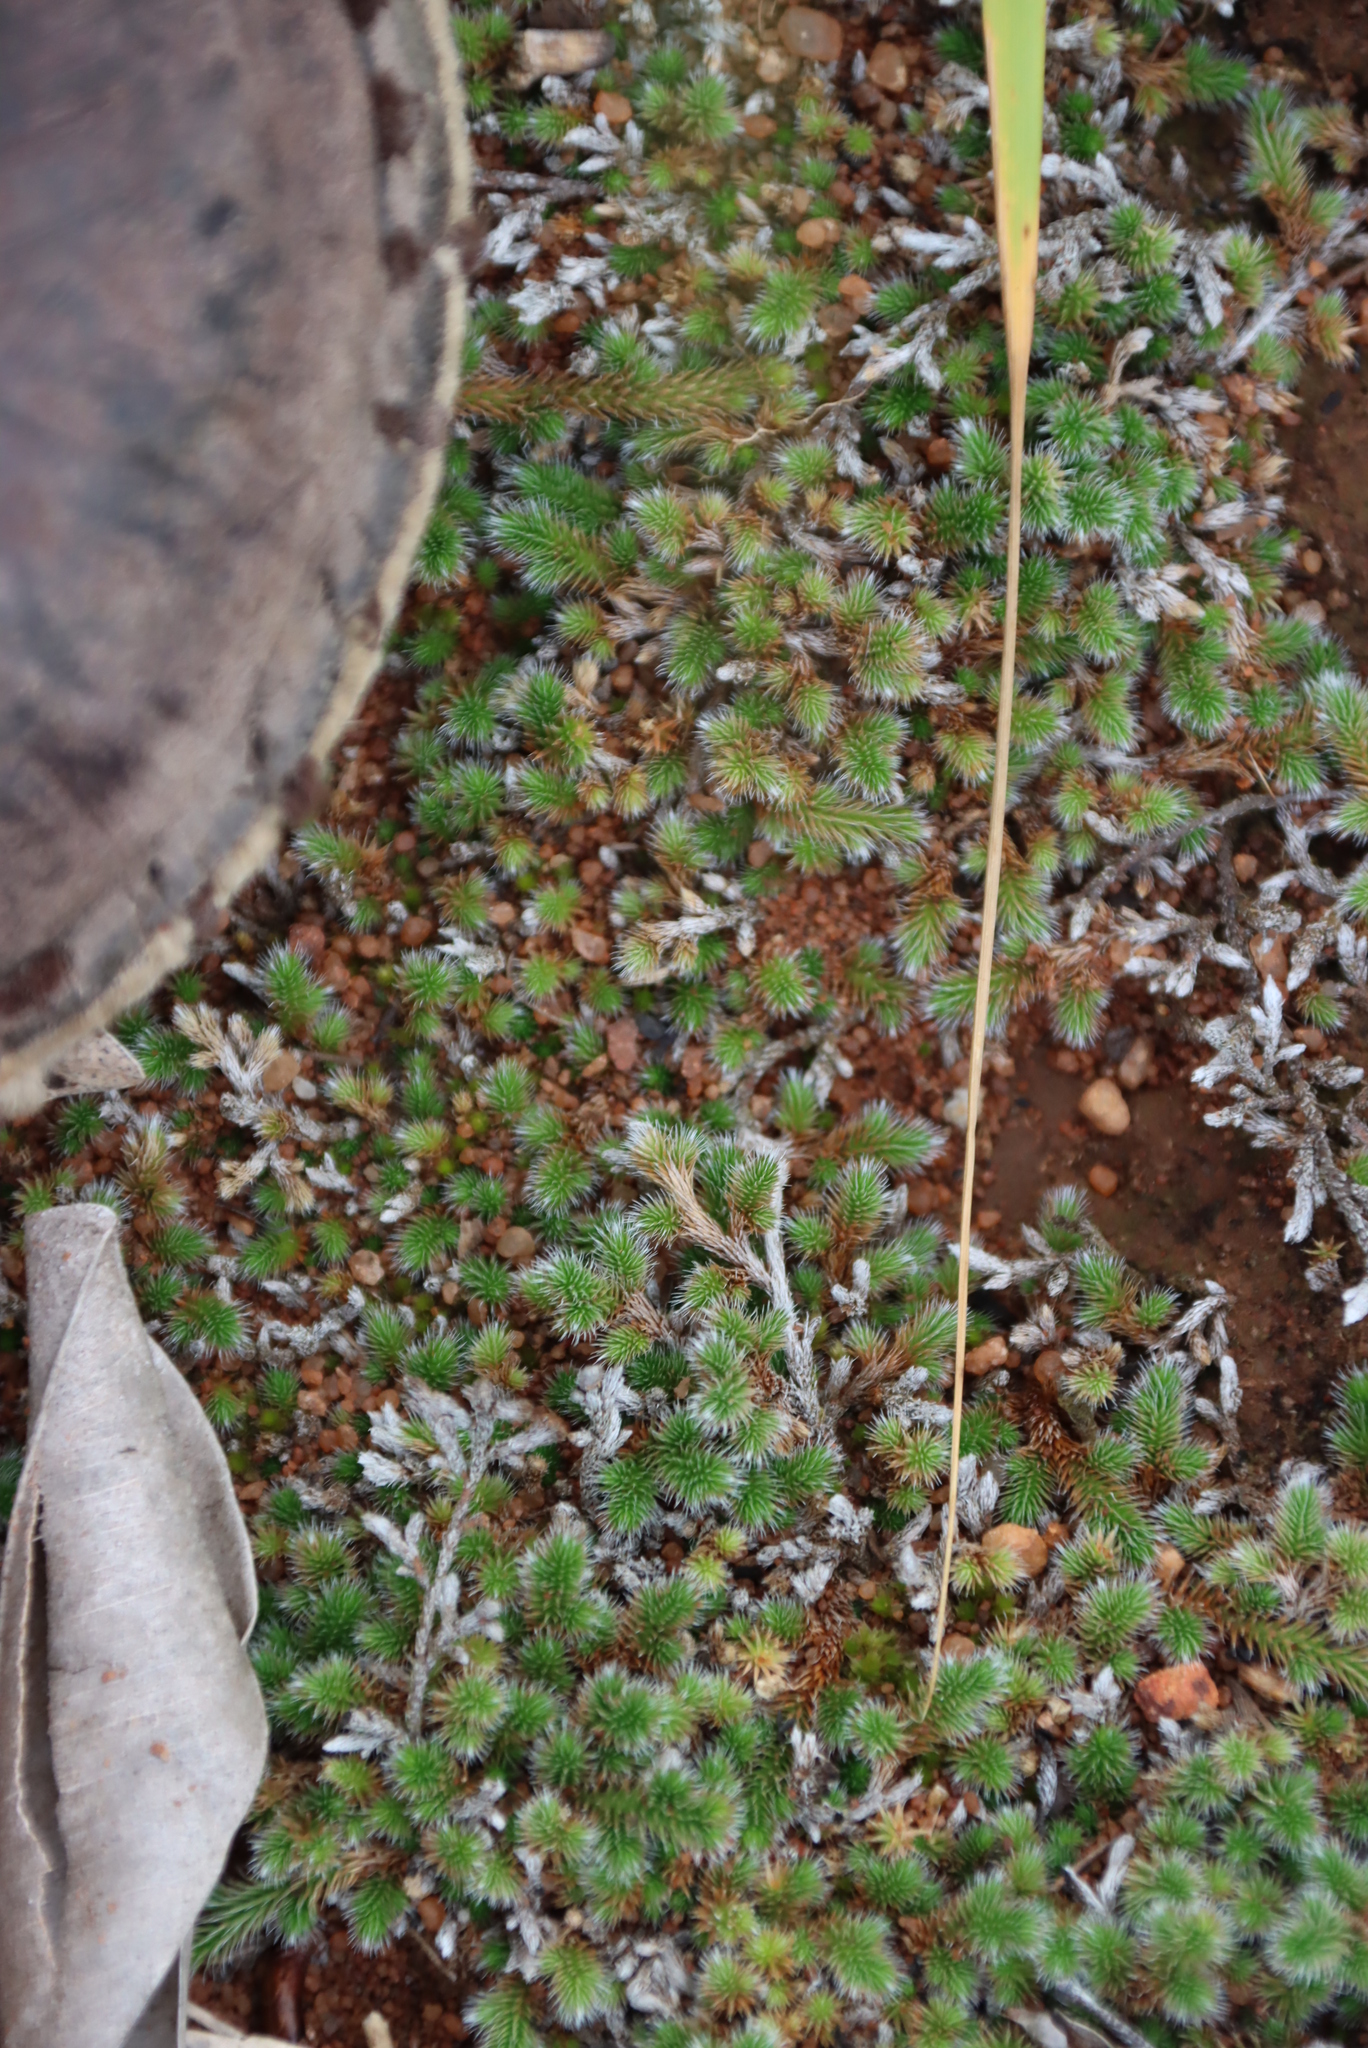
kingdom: Plantae
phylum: Tracheophyta
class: Lycopodiopsida
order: Selaginellales
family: Selaginellaceae
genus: Selaginella
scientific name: Selaginella dregei
